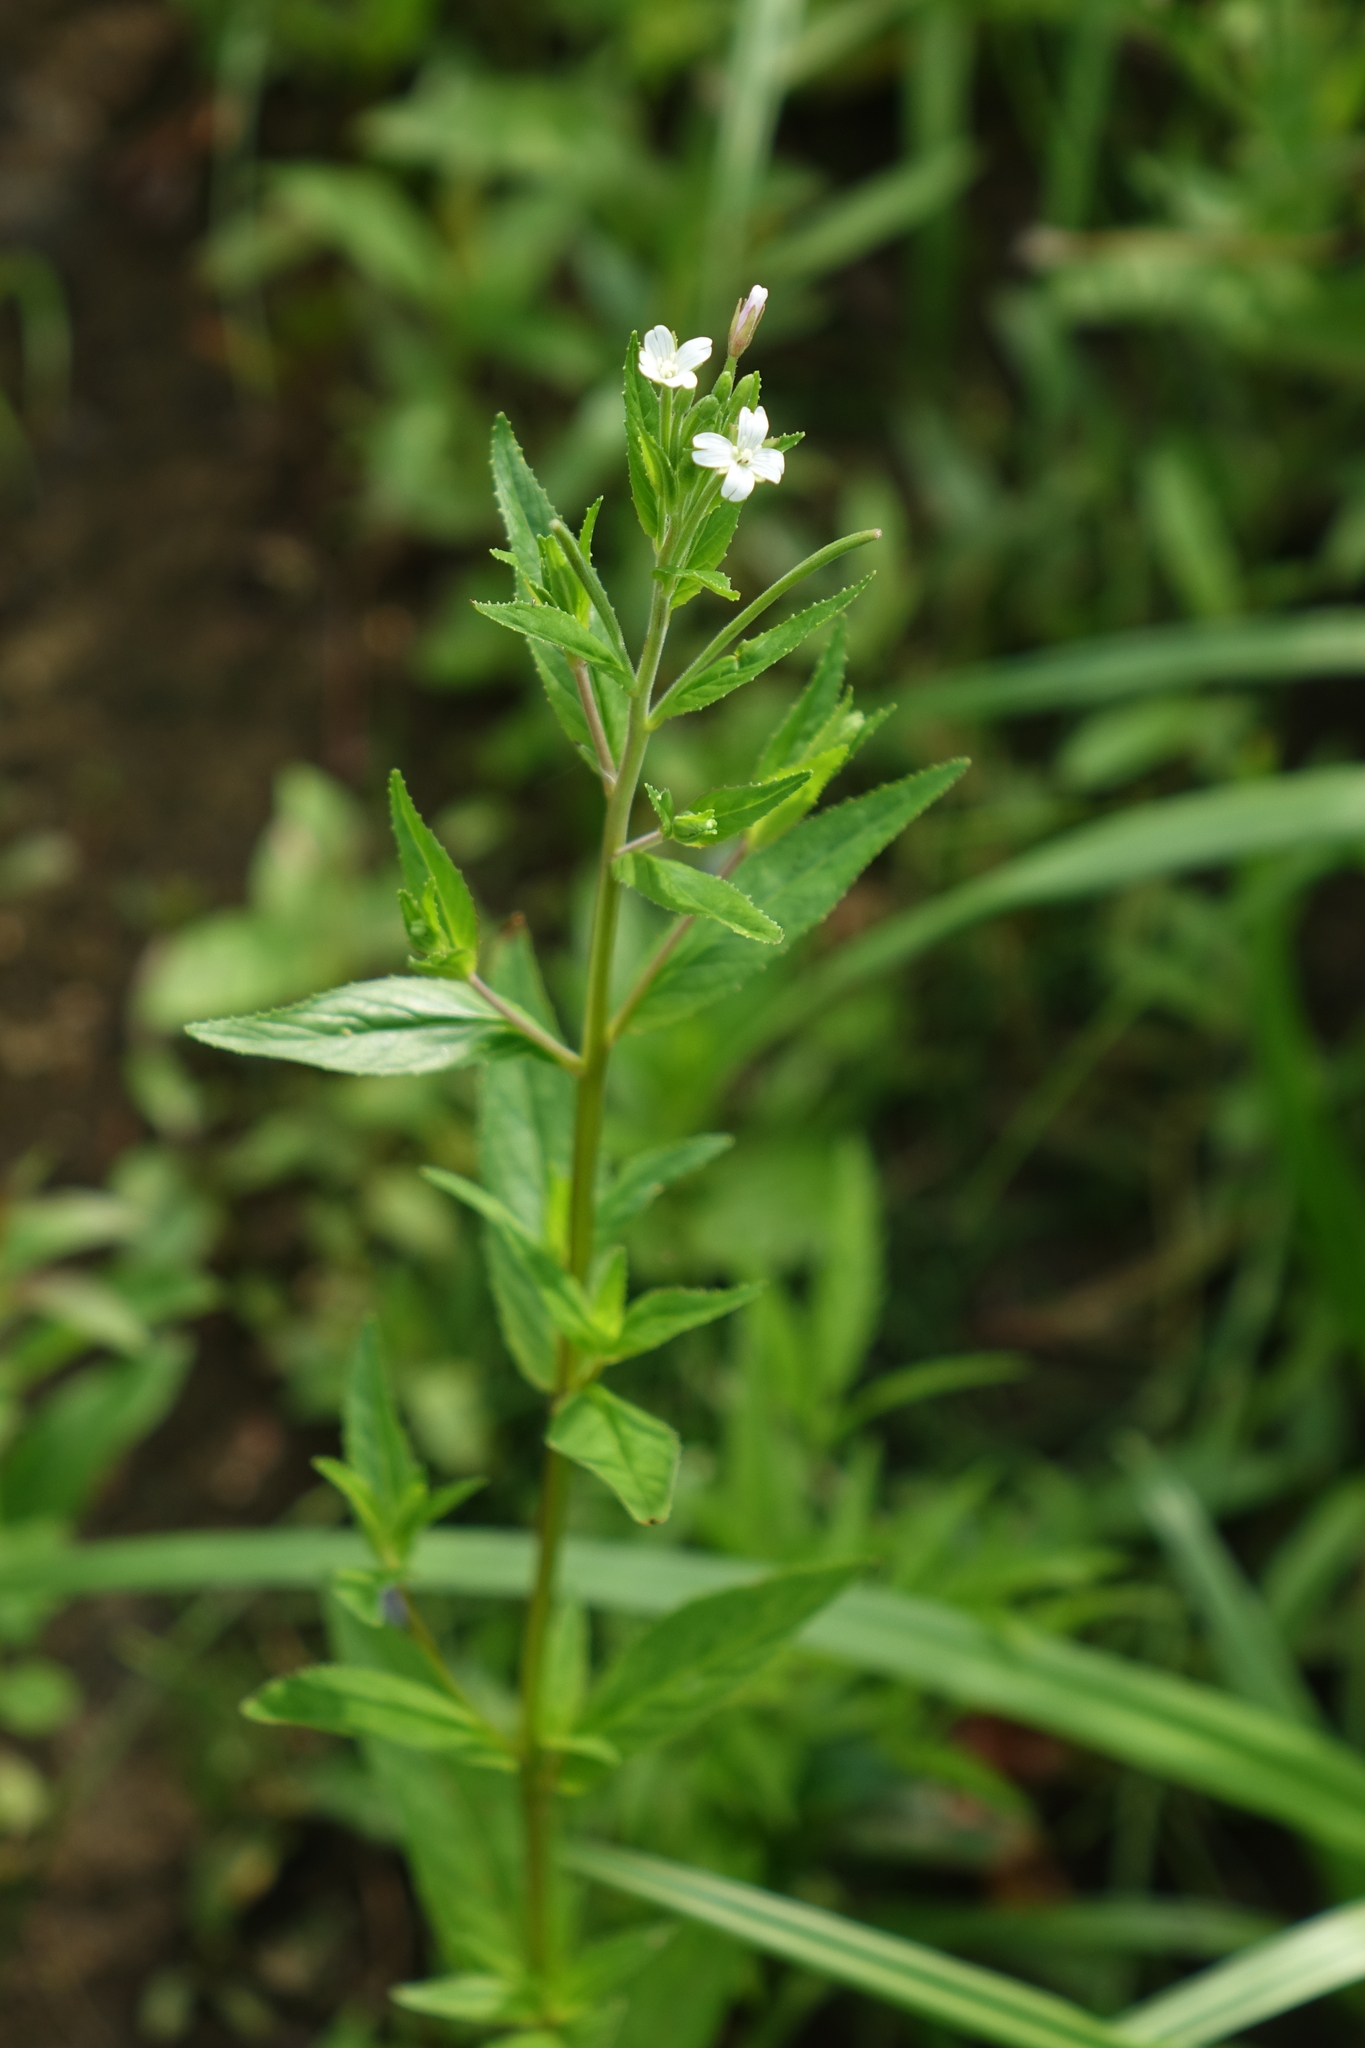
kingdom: Plantae
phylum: Tracheophyta
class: Magnoliopsida
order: Myrtales
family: Onagraceae
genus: Epilobium
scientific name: Epilobium pseudorubescens
